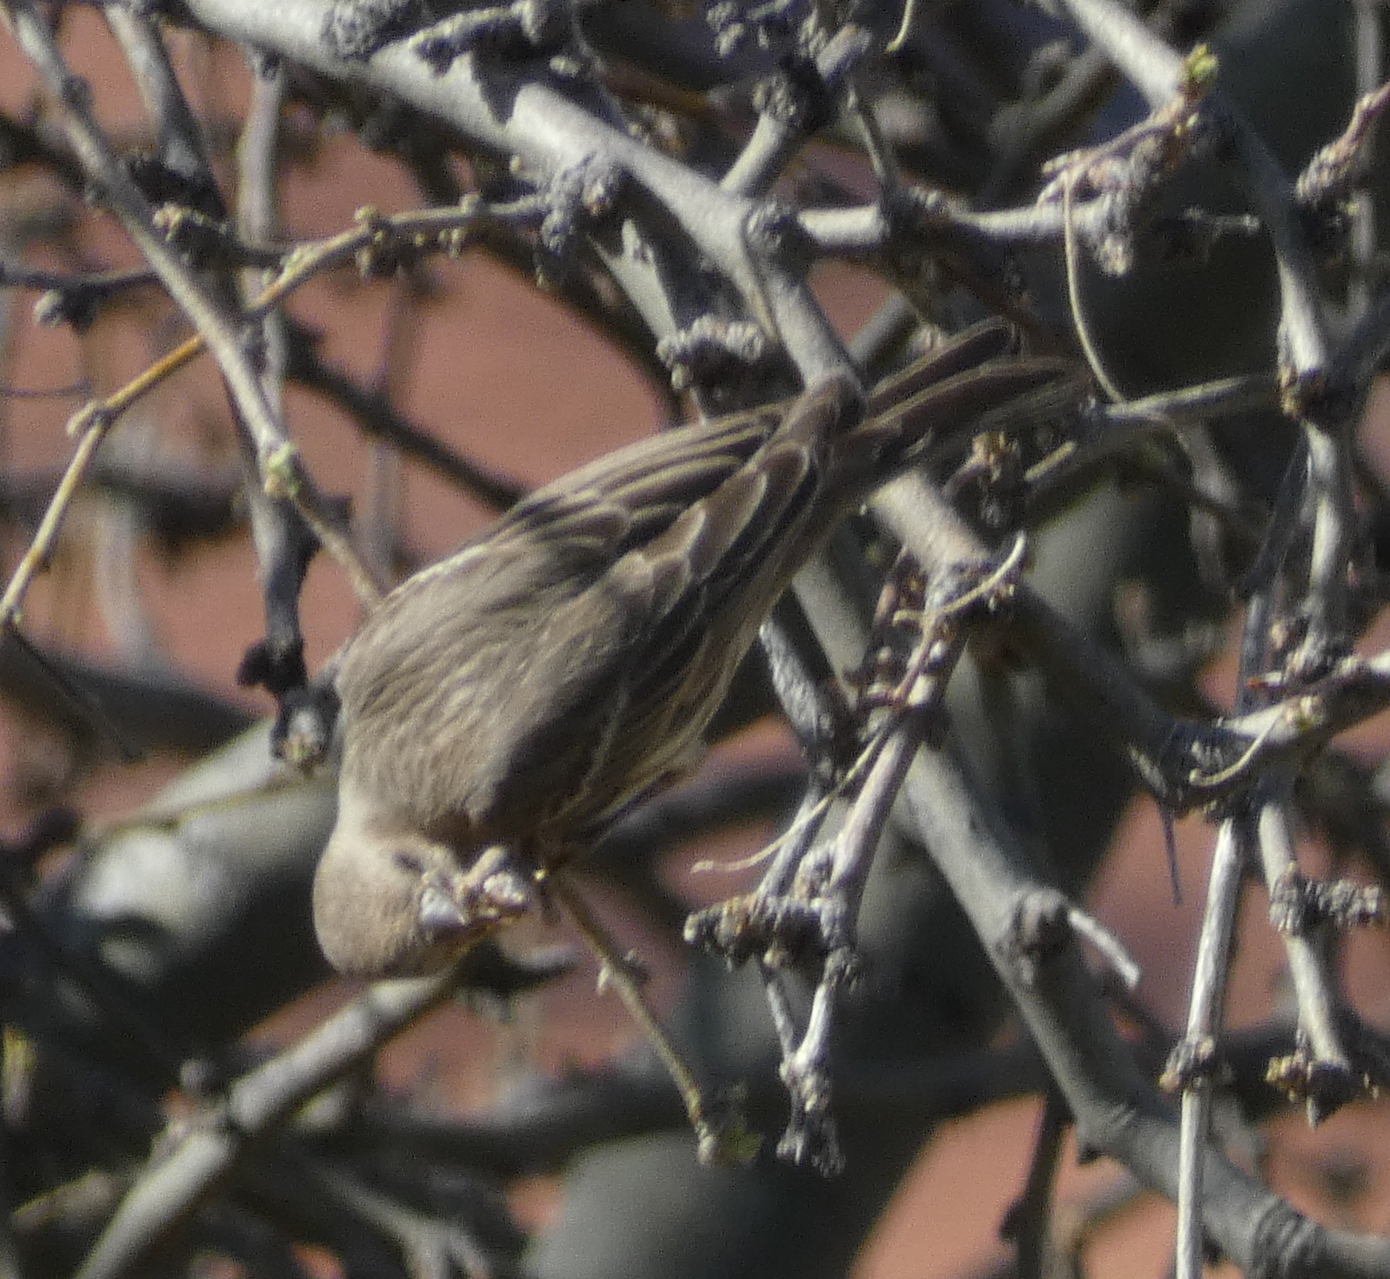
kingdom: Animalia
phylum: Chordata
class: Aves
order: Passeriformes
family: Fringillidae
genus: Haemorhous
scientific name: Haemorhous mexicanus
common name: House finch
